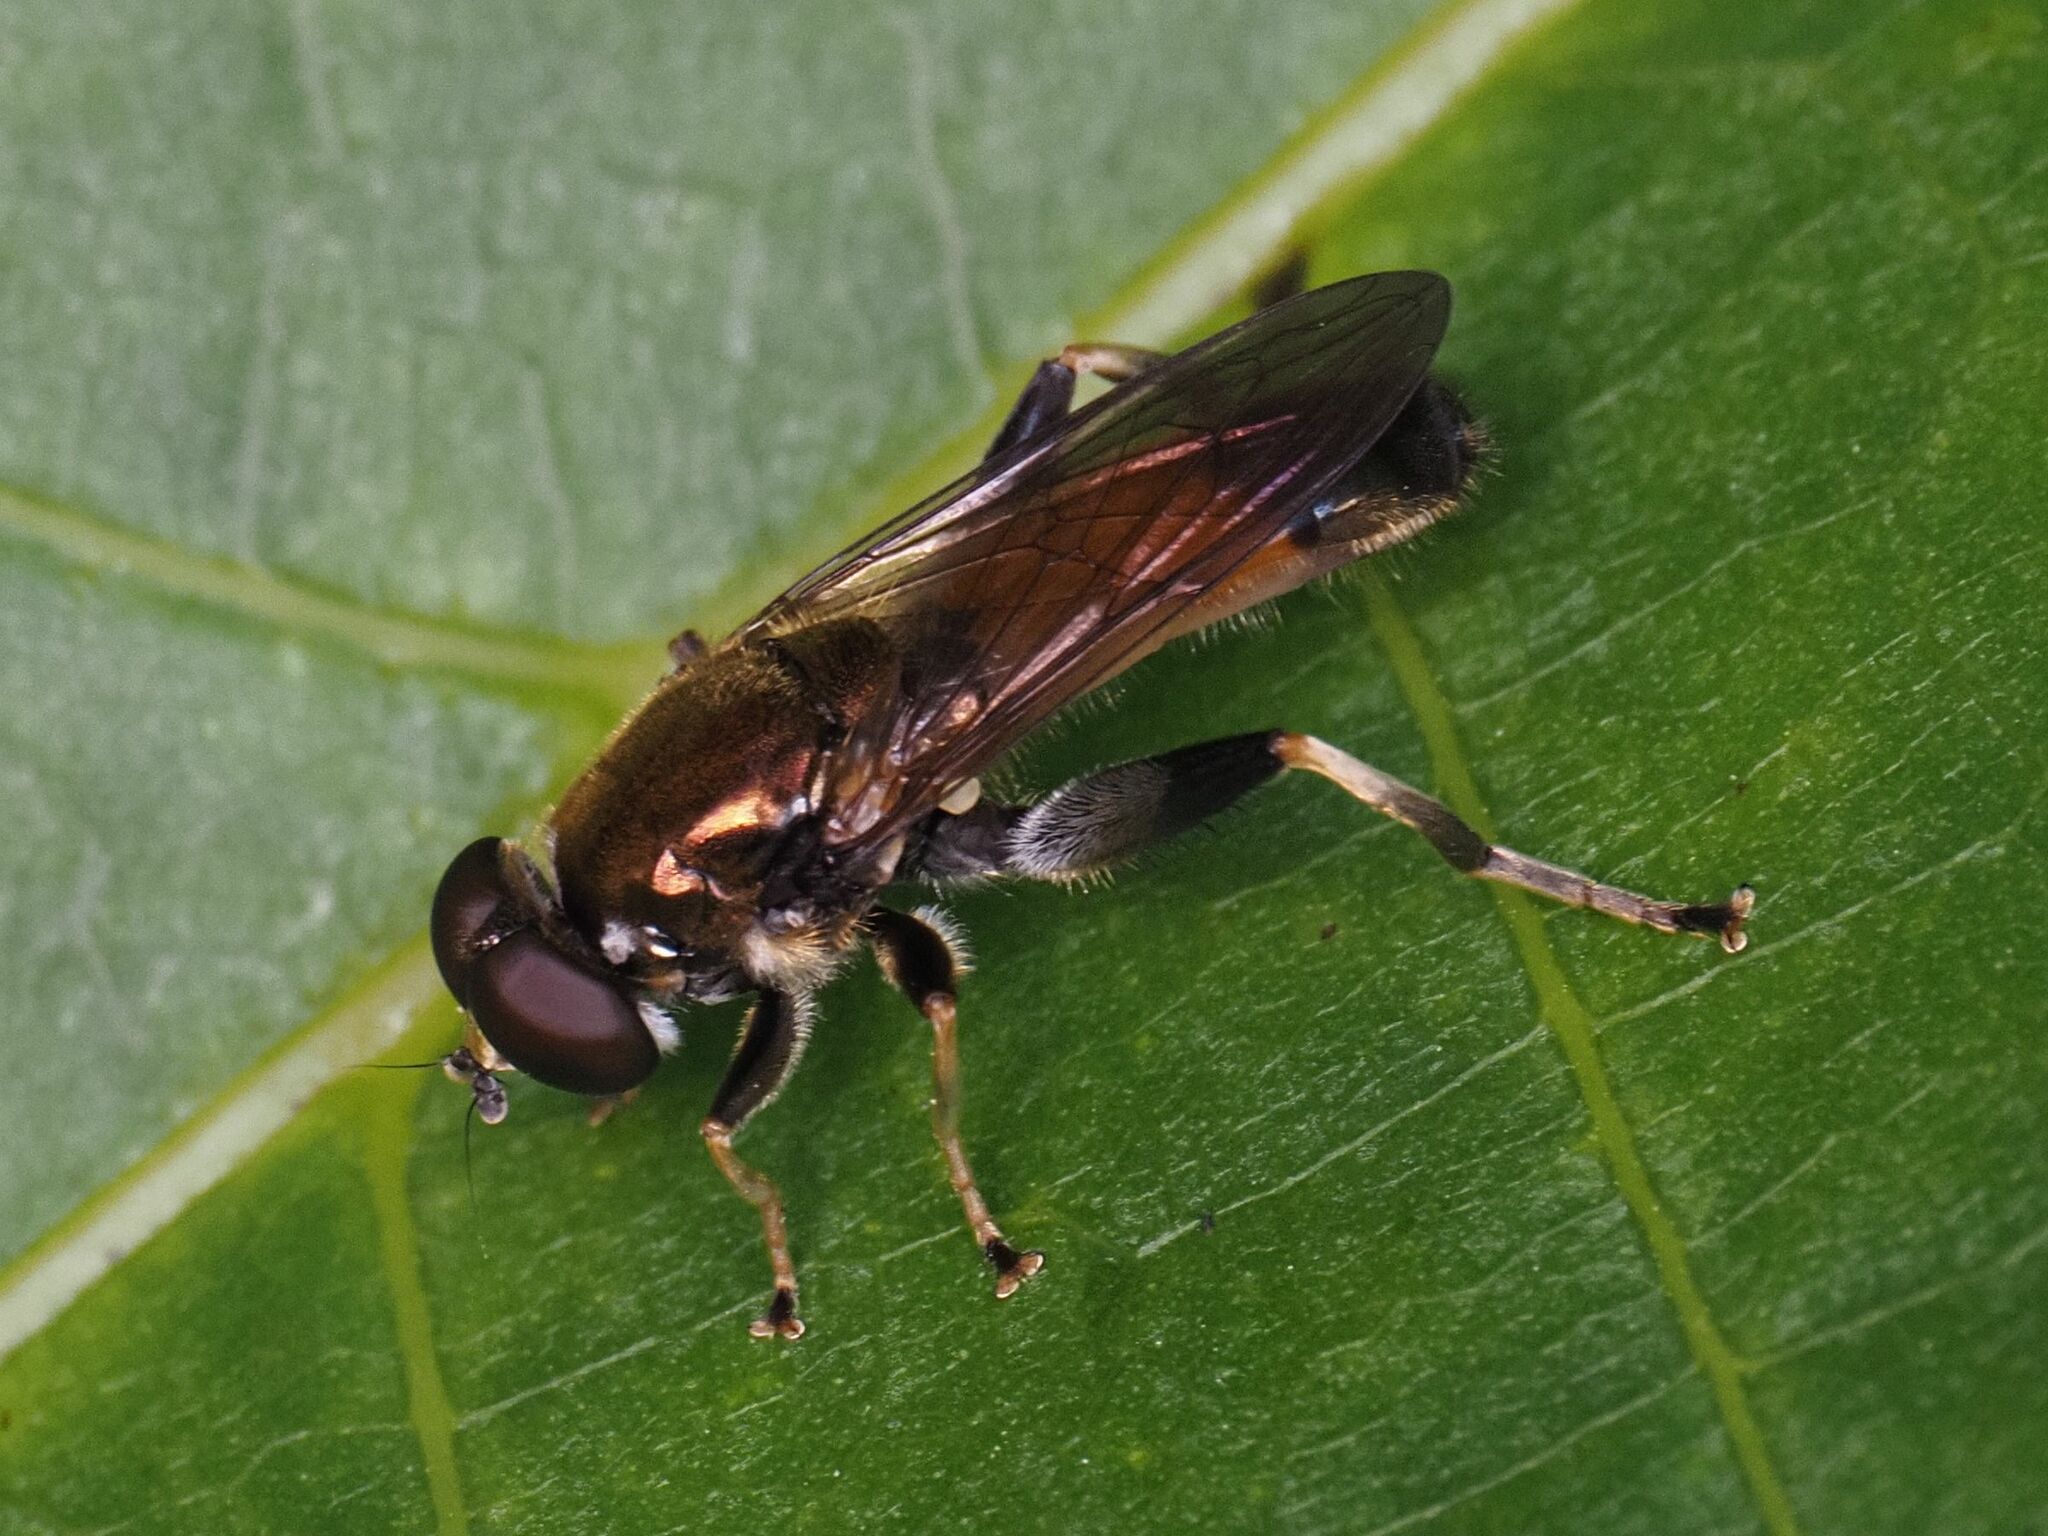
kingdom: Animalia
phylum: Arthropoda
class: Insecta
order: Diptera
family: Syrphidae
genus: Xylota
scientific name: Xylota segnis
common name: Brown-toed forest fly
